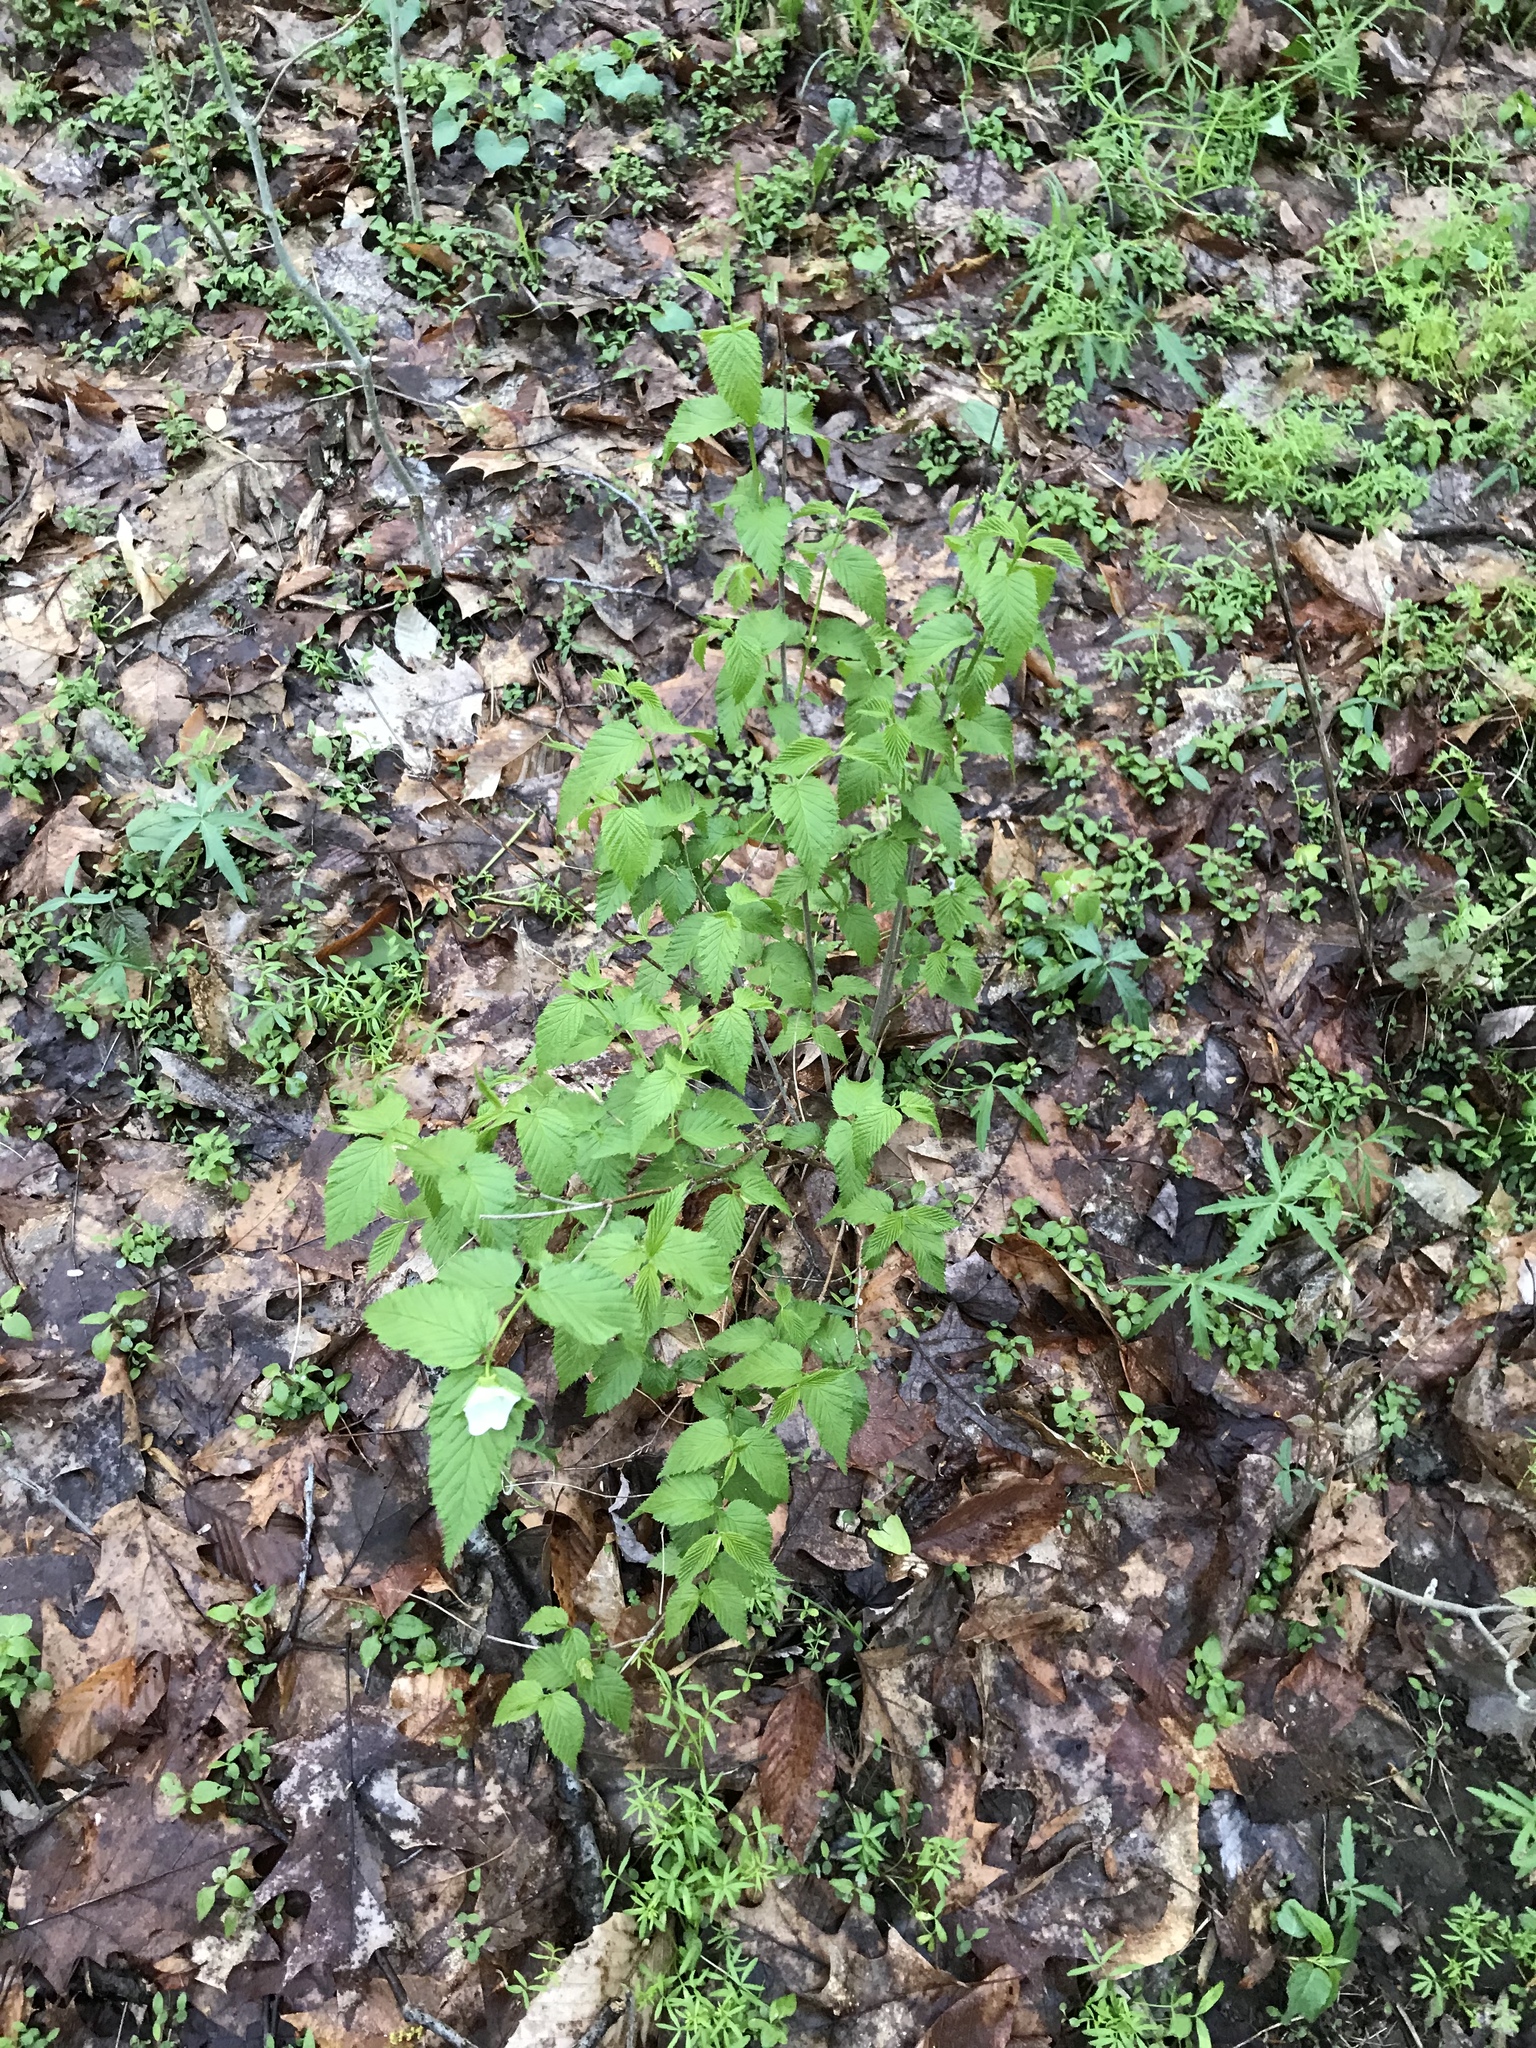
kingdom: Plantae
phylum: Tracheophyta
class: Magnoliopsida
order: Rosales
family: Rosaceae
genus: Rhodotypos
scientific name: Rhodotypos scandens
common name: Jetbead
